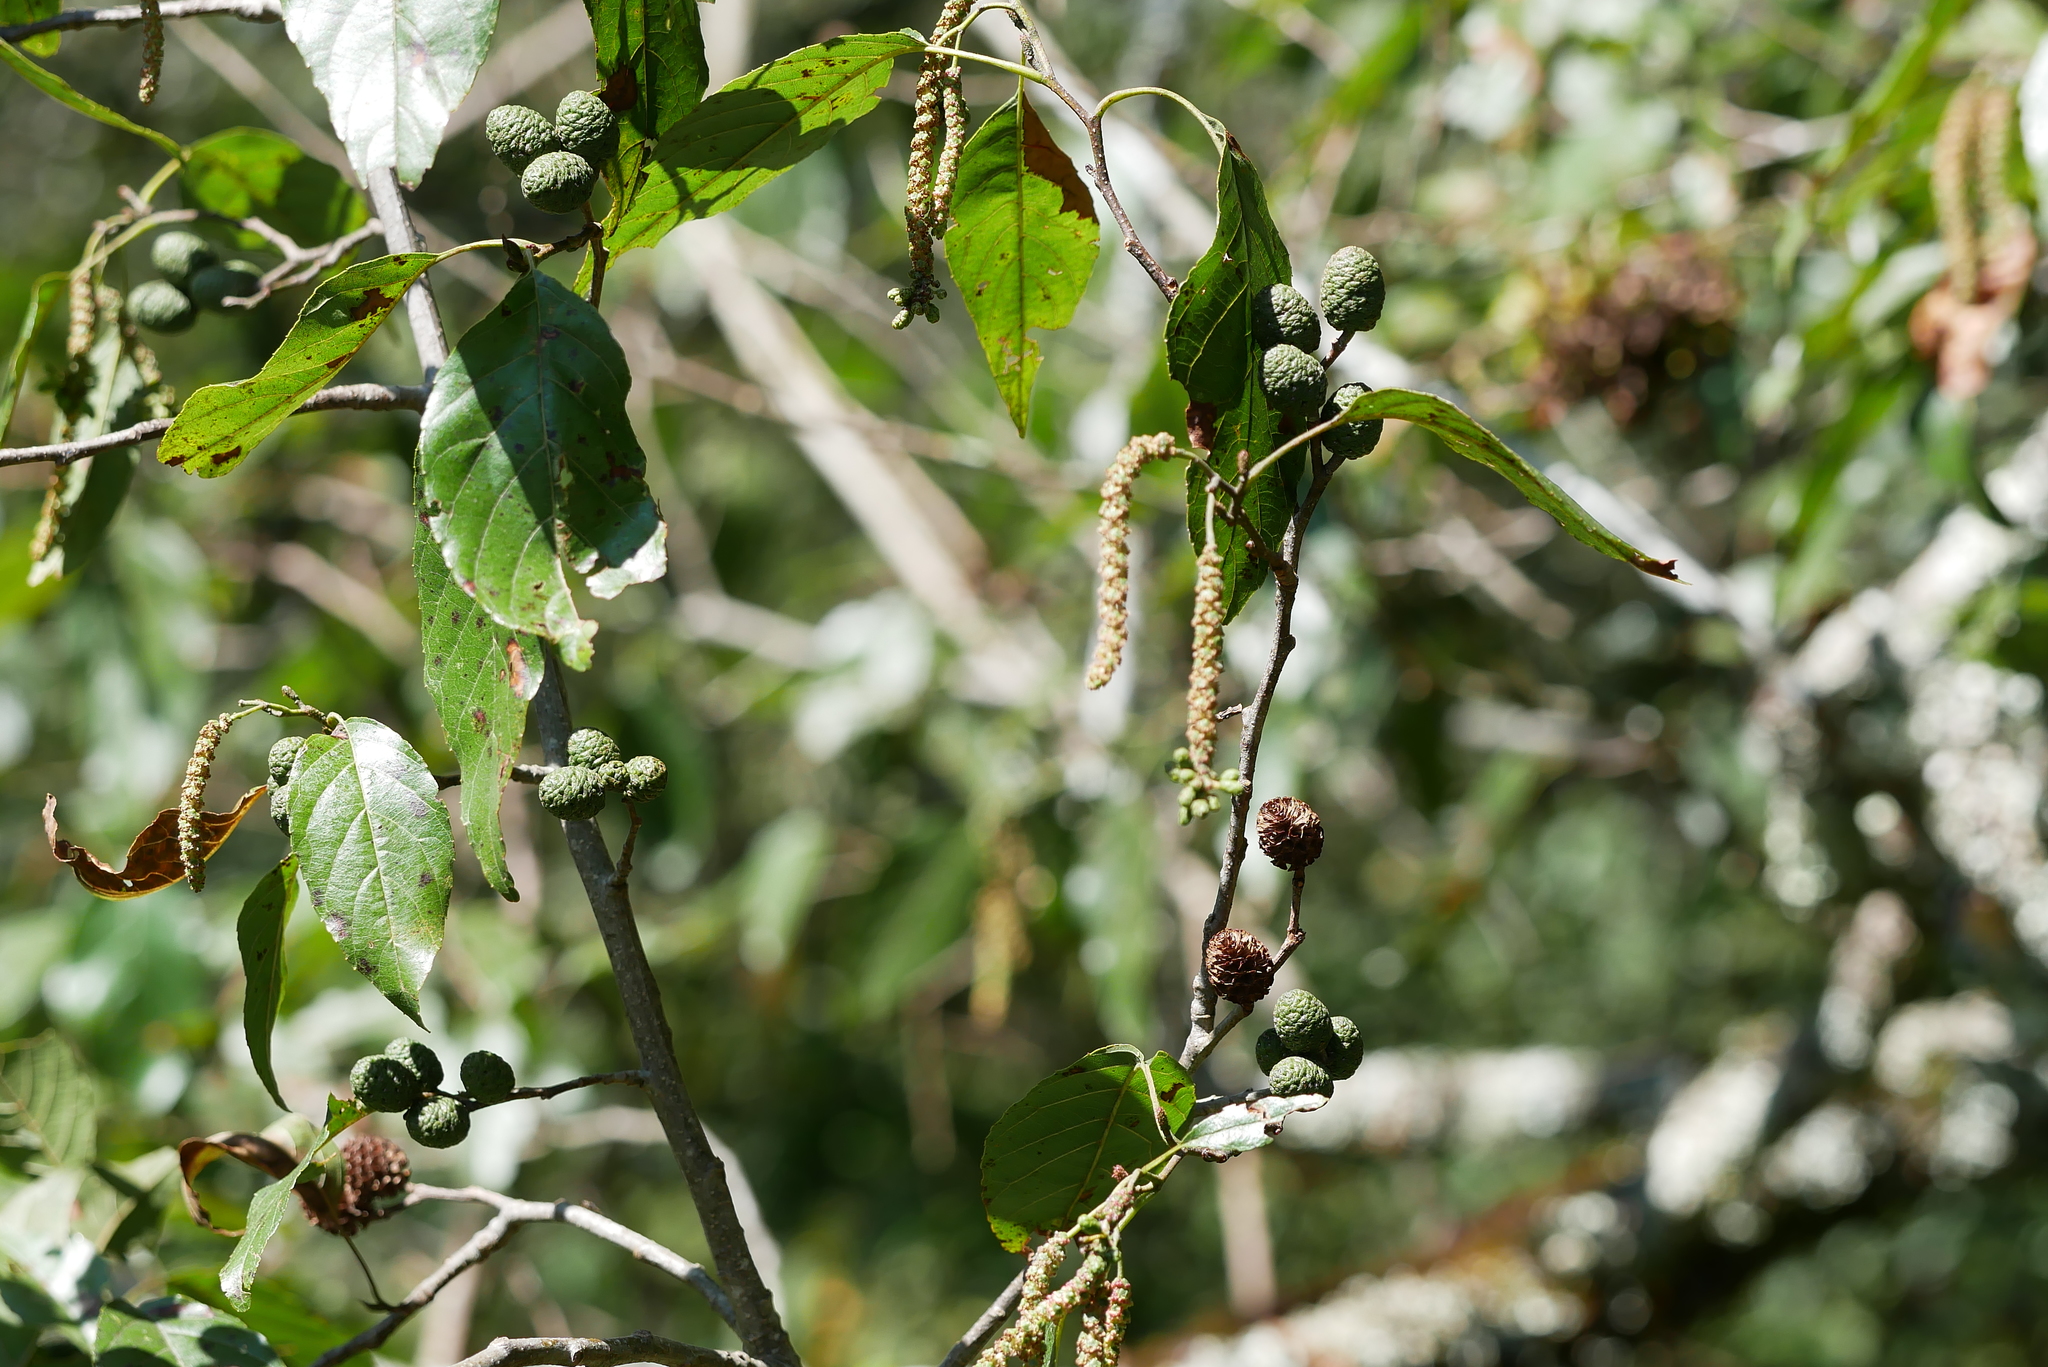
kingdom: Plantae
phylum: Tracheophyta
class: Magnoliopsida
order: Fagales
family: Betulaceae
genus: Alnus
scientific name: Alnus formosana
